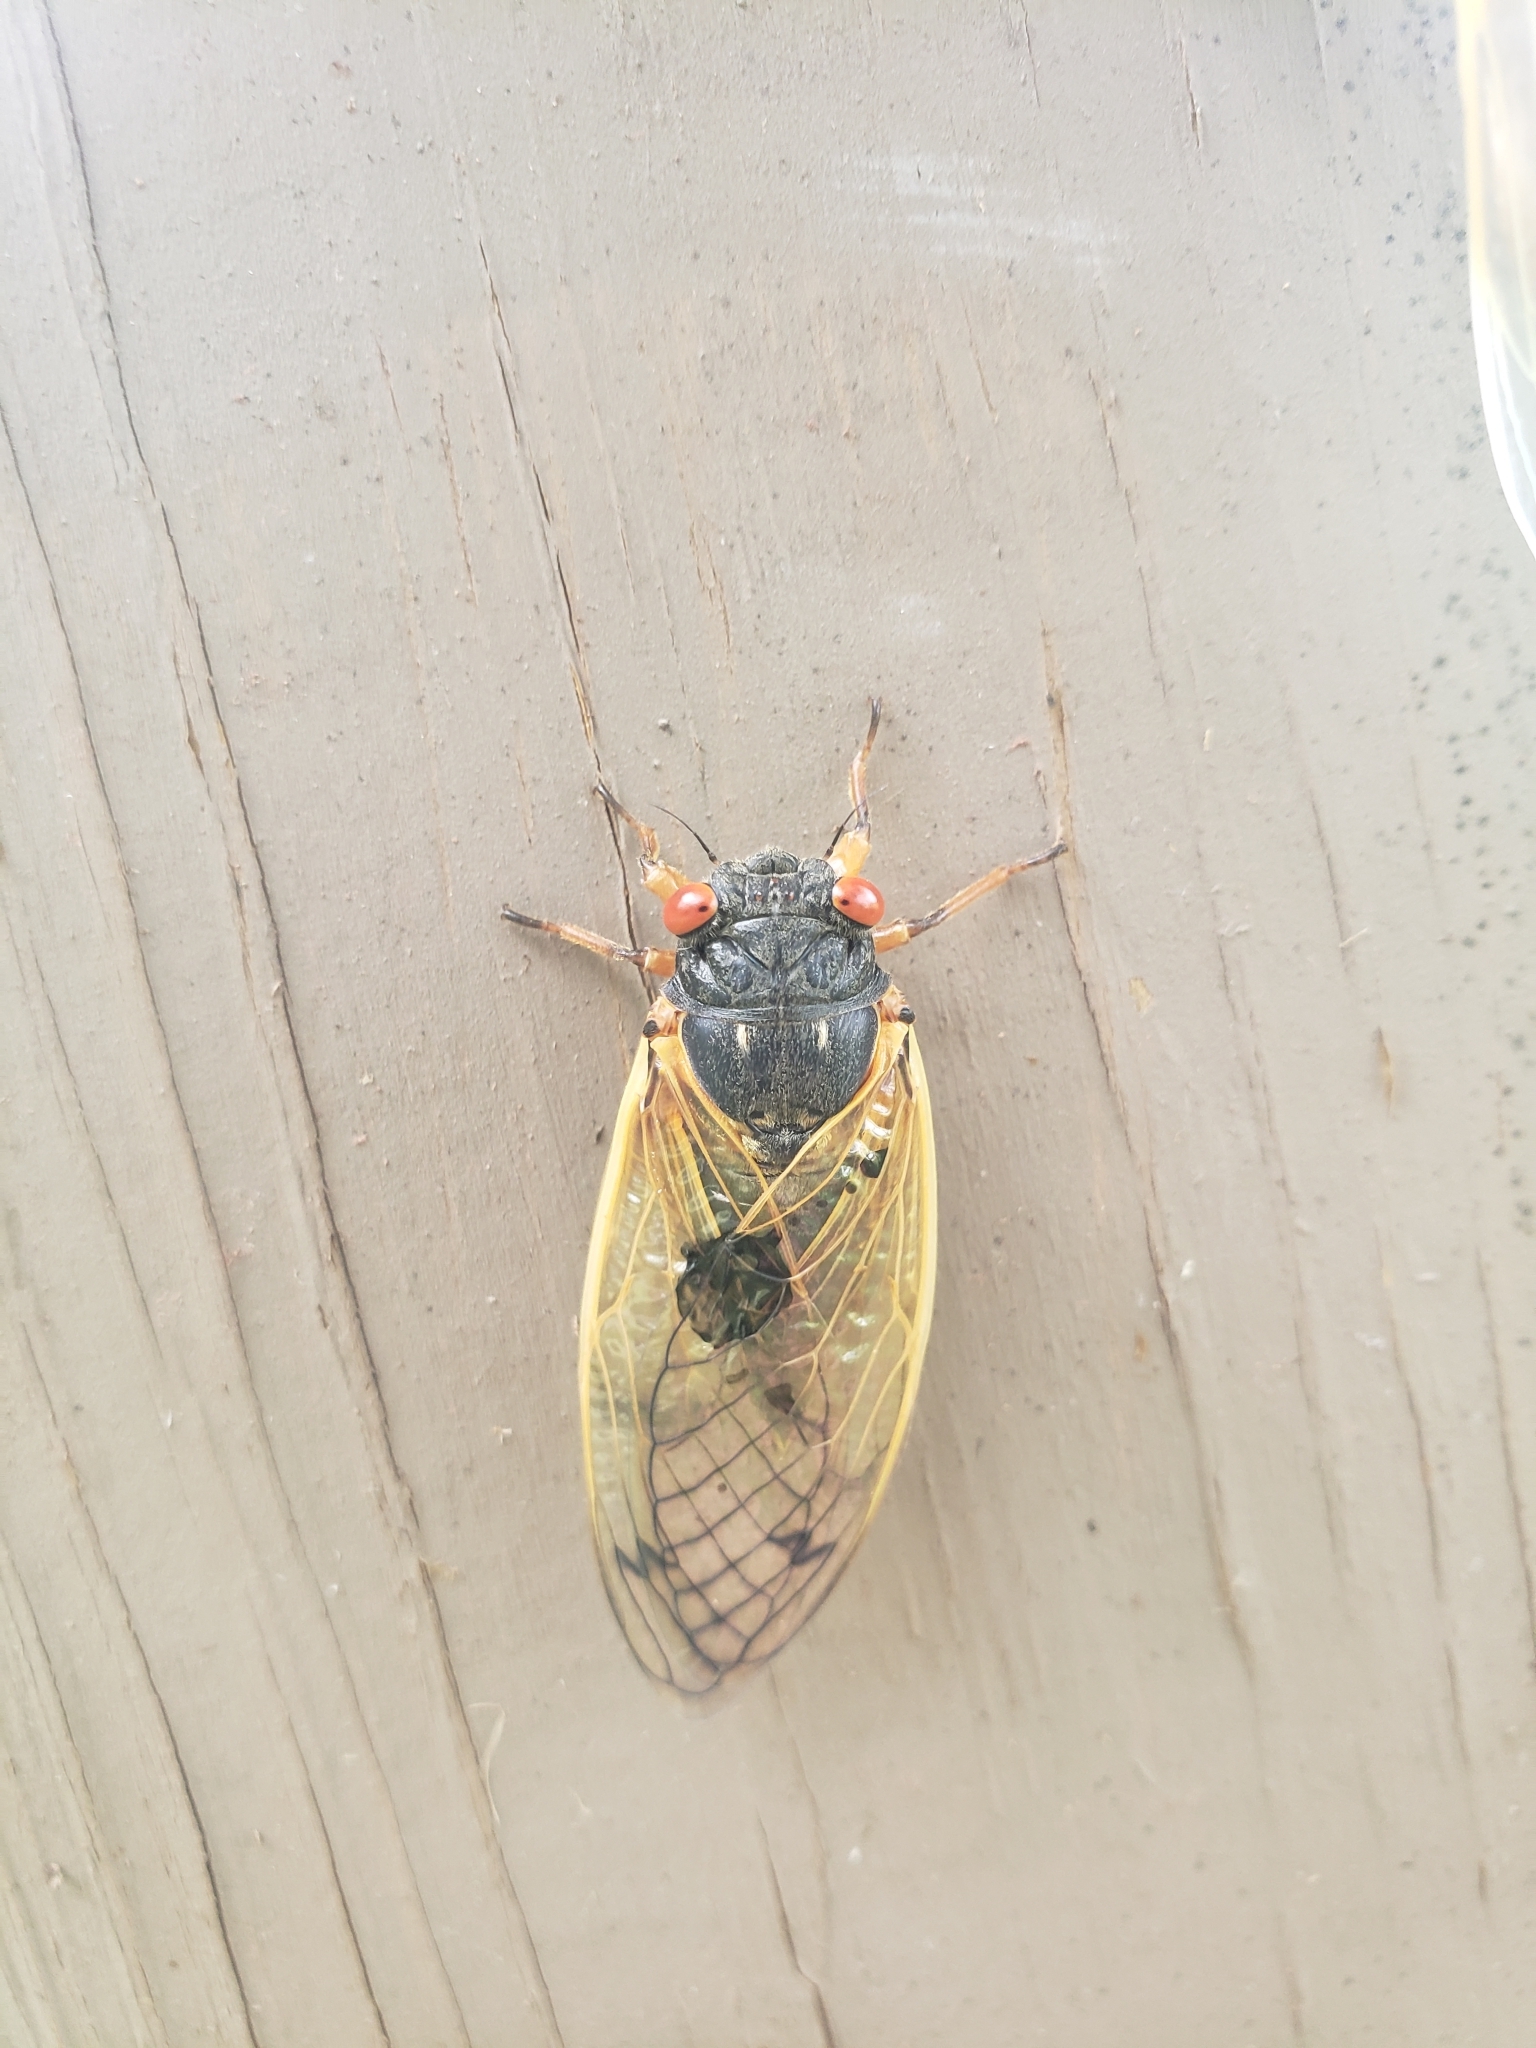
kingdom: Animalia
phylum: Arthropoda
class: Insecta
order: Hemiptera
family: Cicadidae
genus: Magicicada
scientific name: Magicicada
